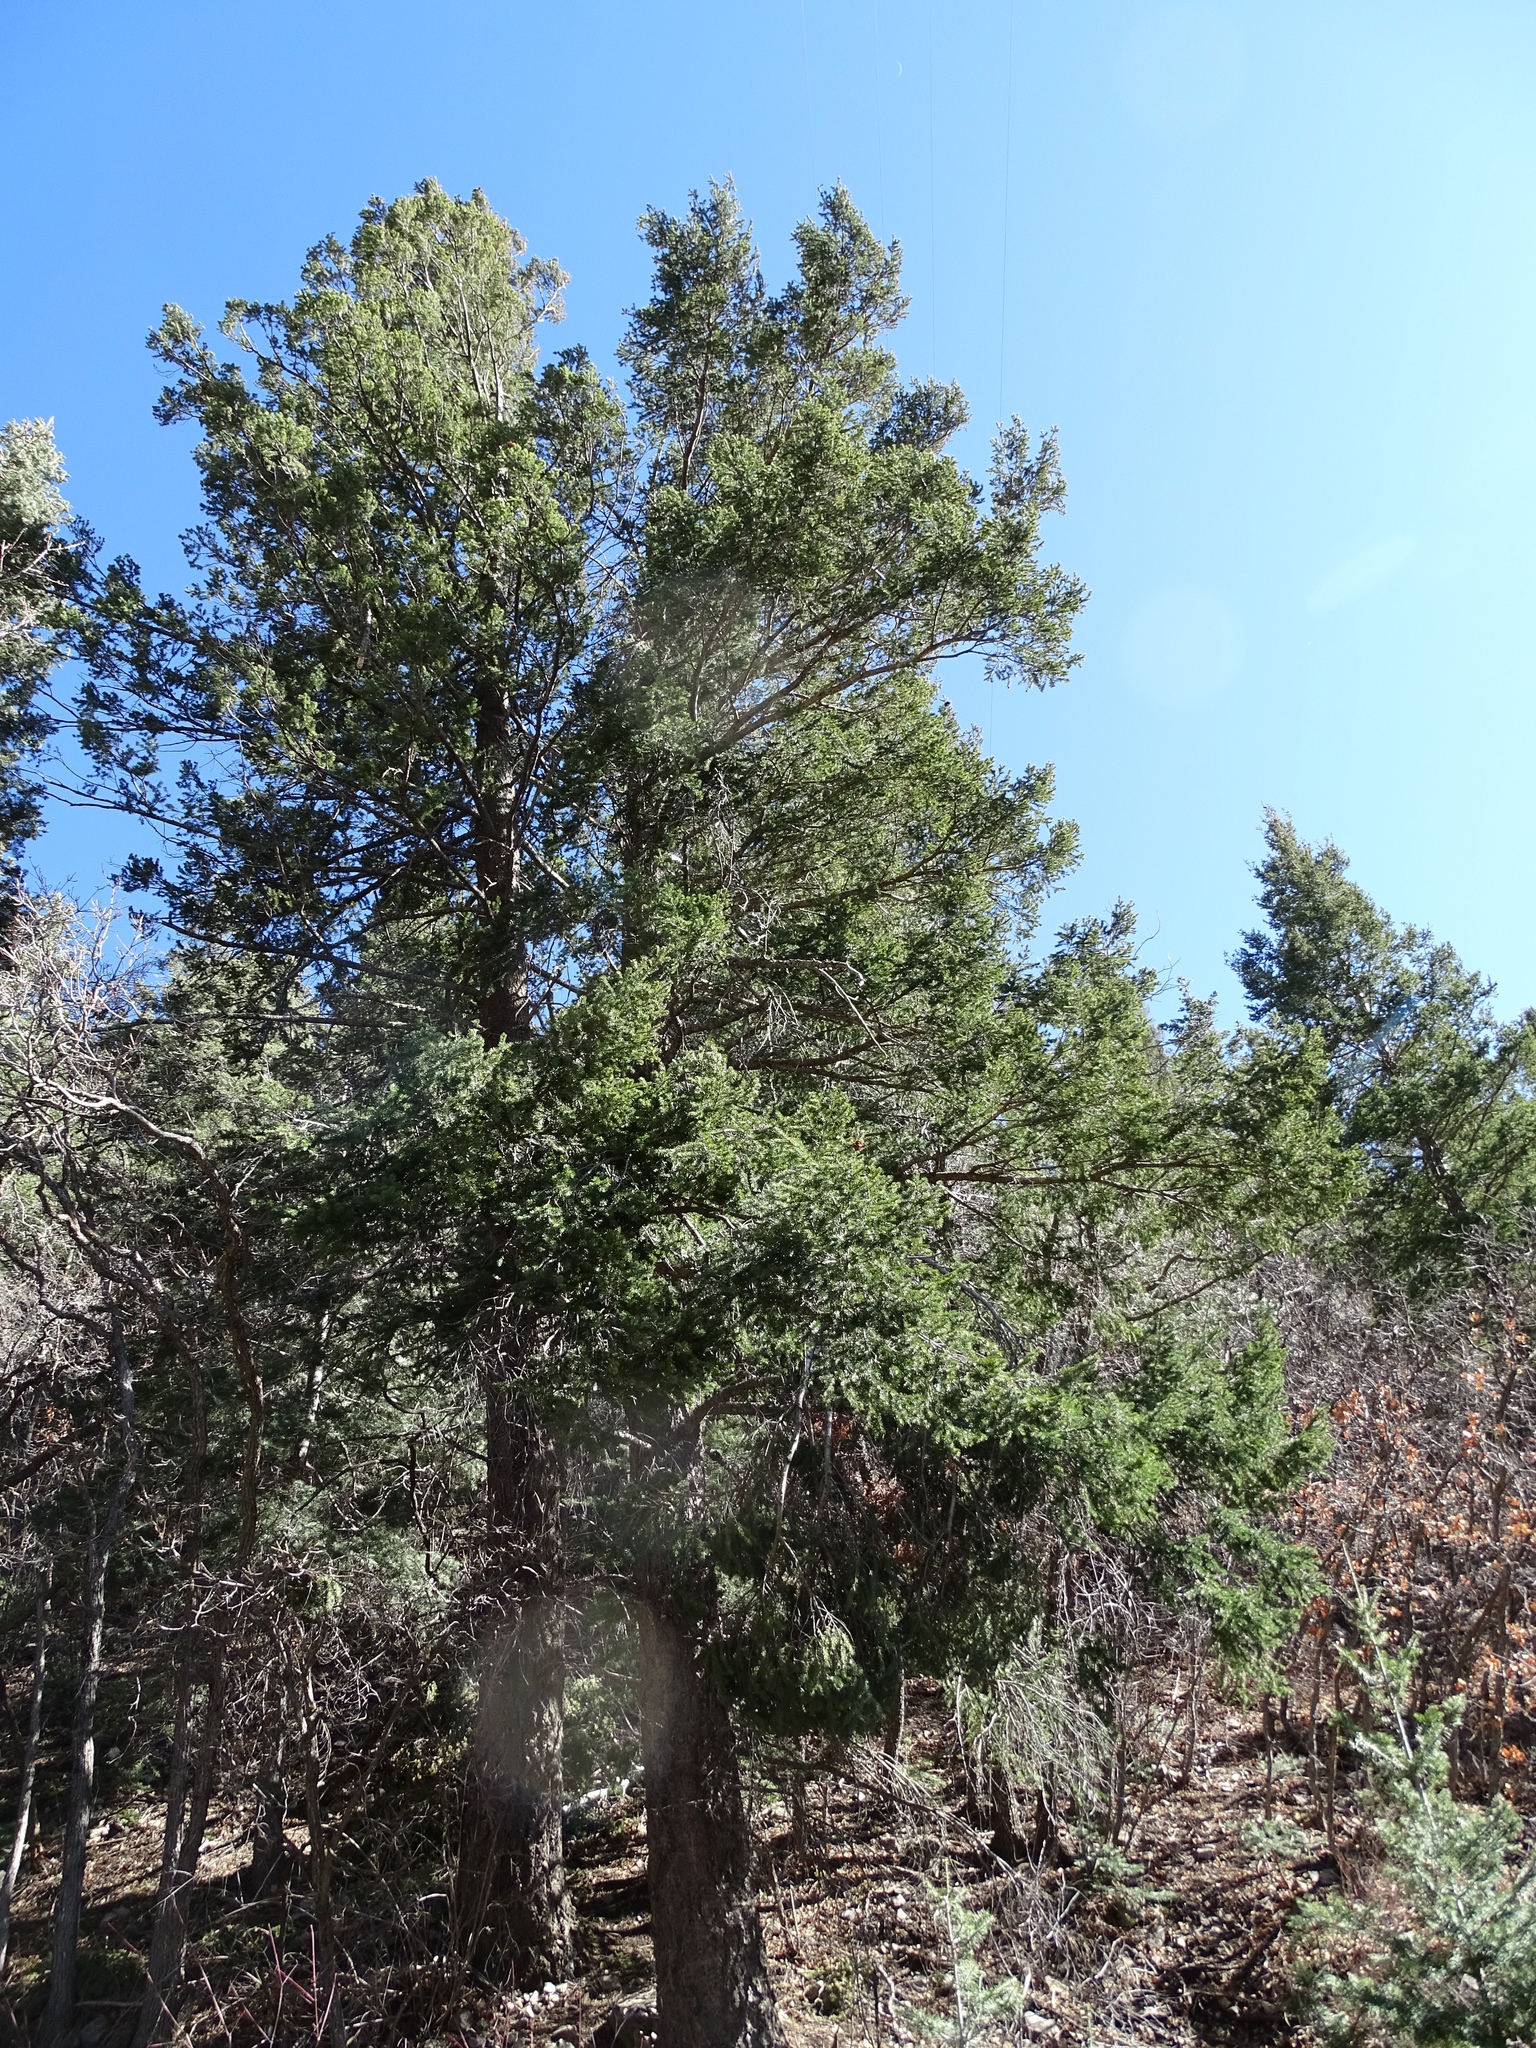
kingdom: Plantae
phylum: Tracheophyta
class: Pinopsida
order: Pinales
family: Pinaceae
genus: Pseudotsuga
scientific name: Pseudotsuga menziesii
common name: Douglas fir
